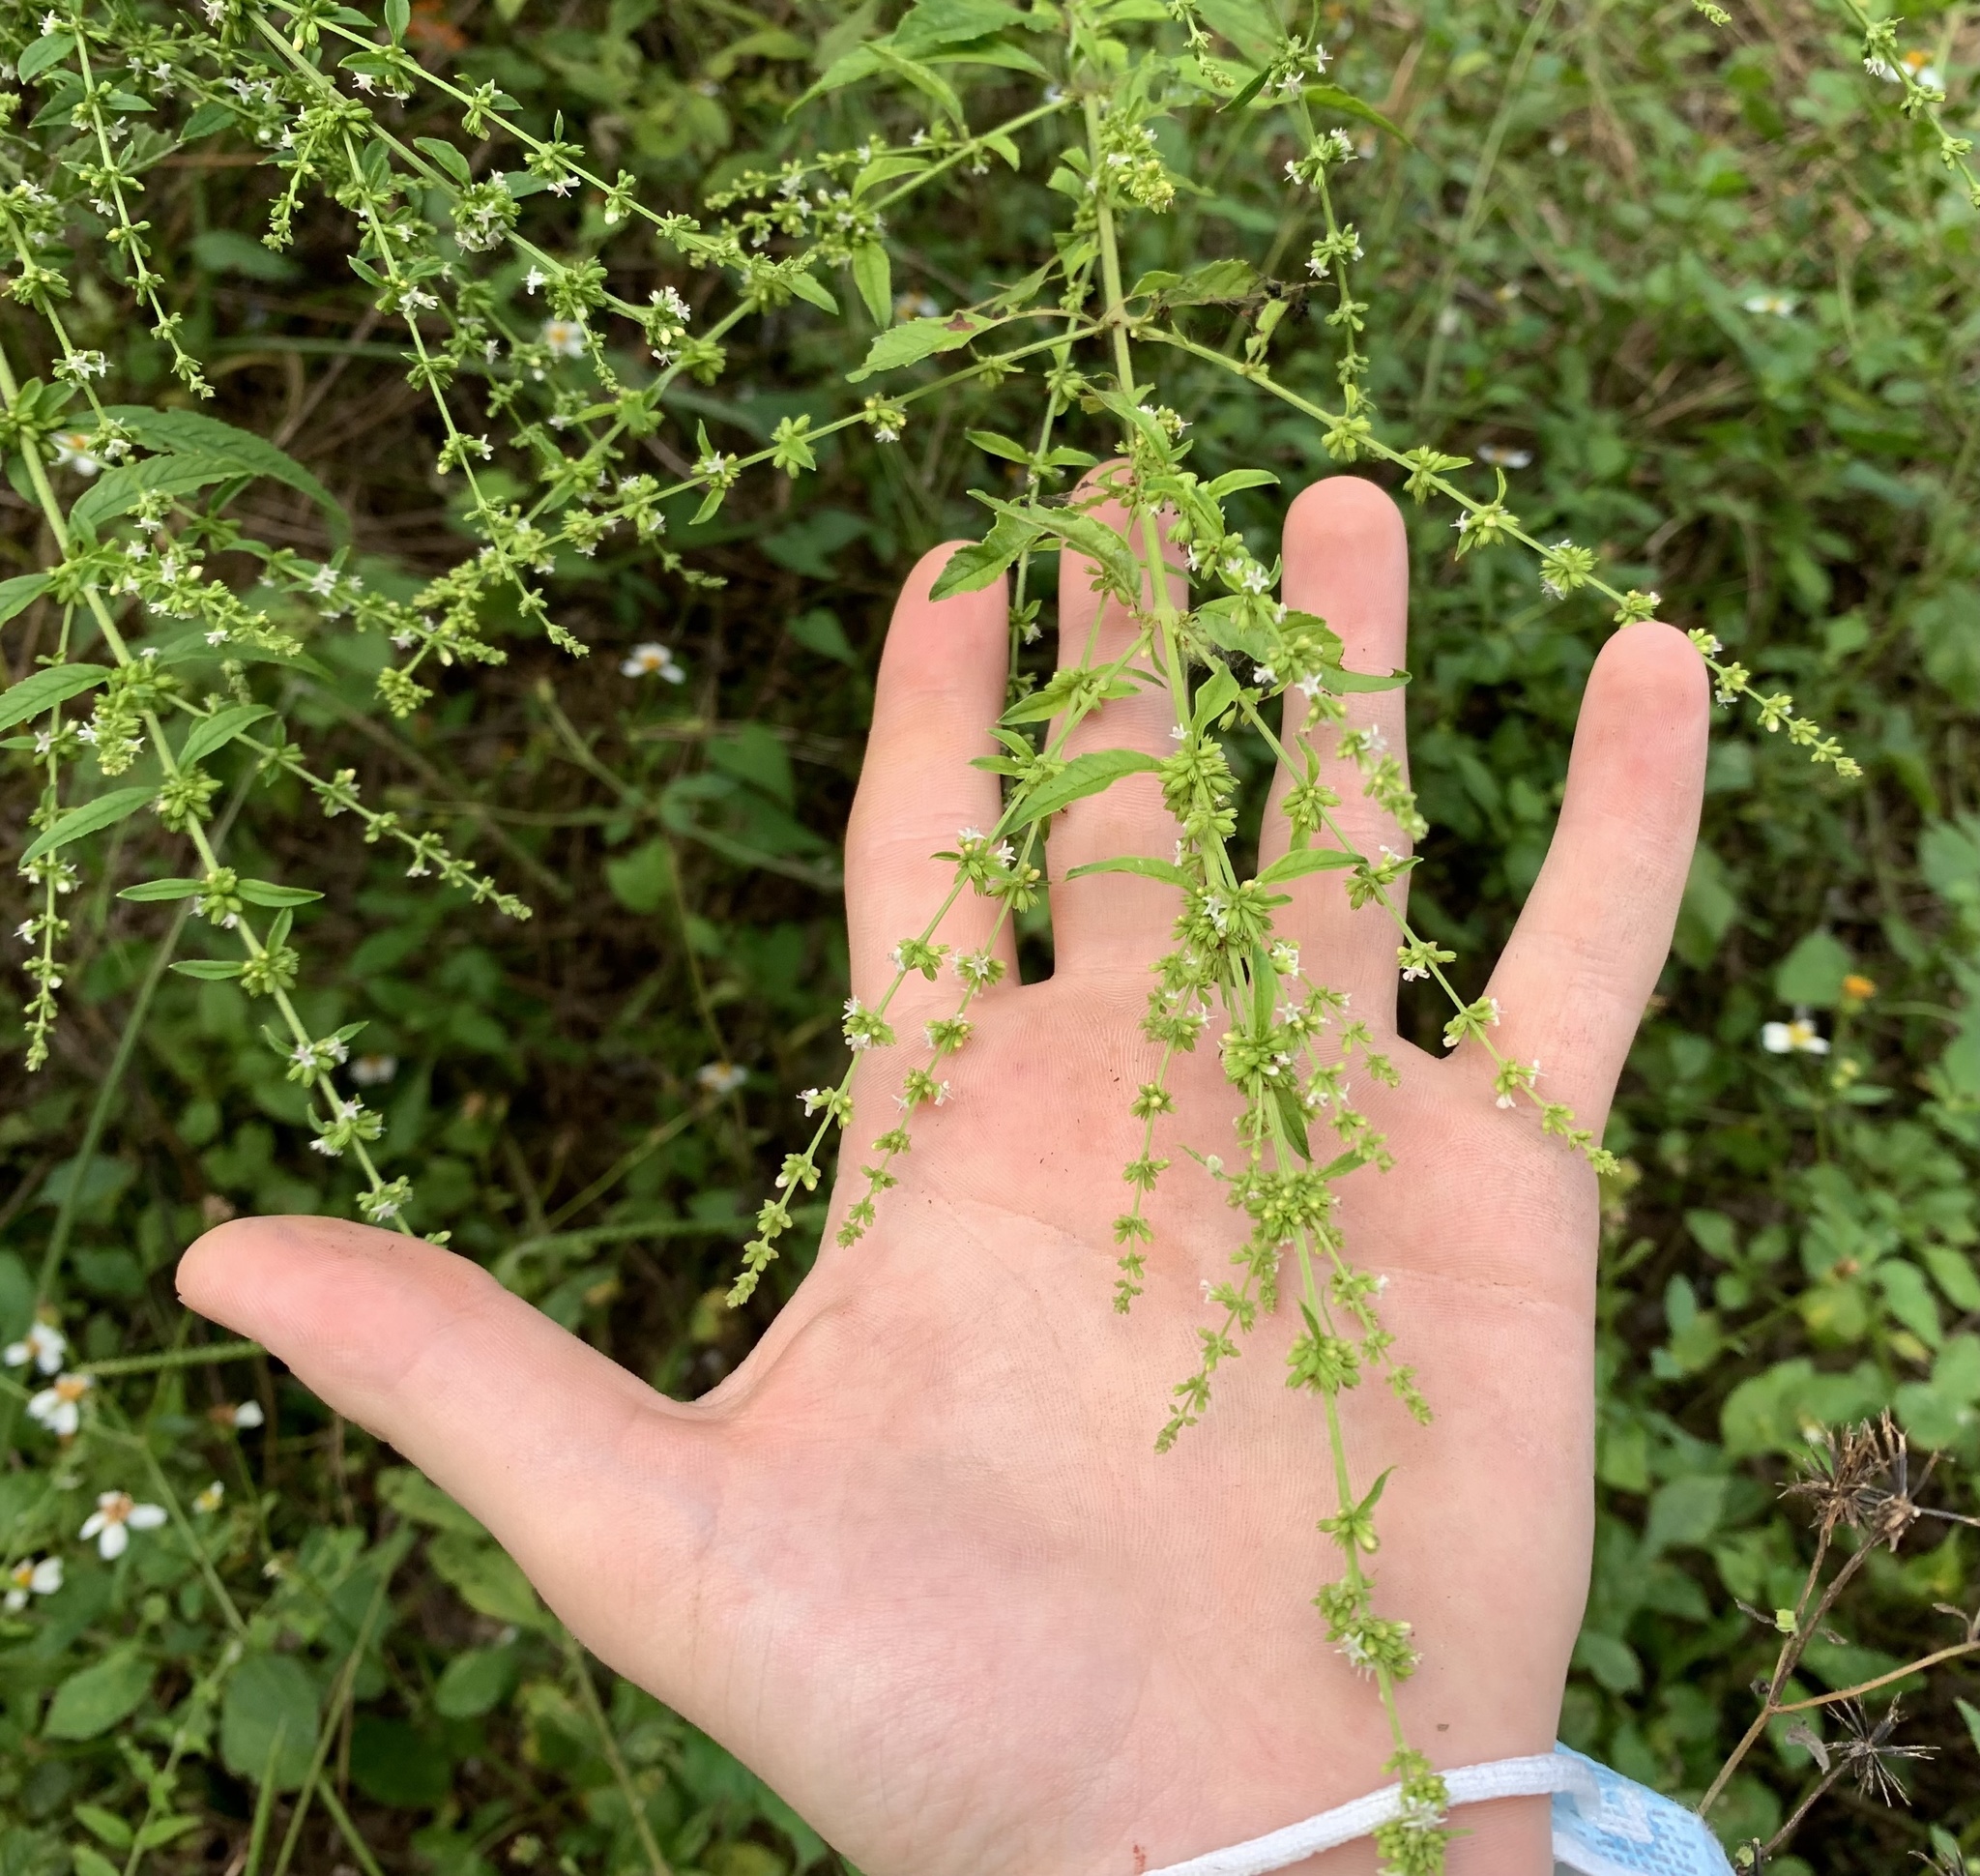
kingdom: Plantae
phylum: Tracheophyta
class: Magnoliopsida
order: Lamiales
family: Lamiaceae
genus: Condea
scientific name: Condea verticillata
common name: John charles
